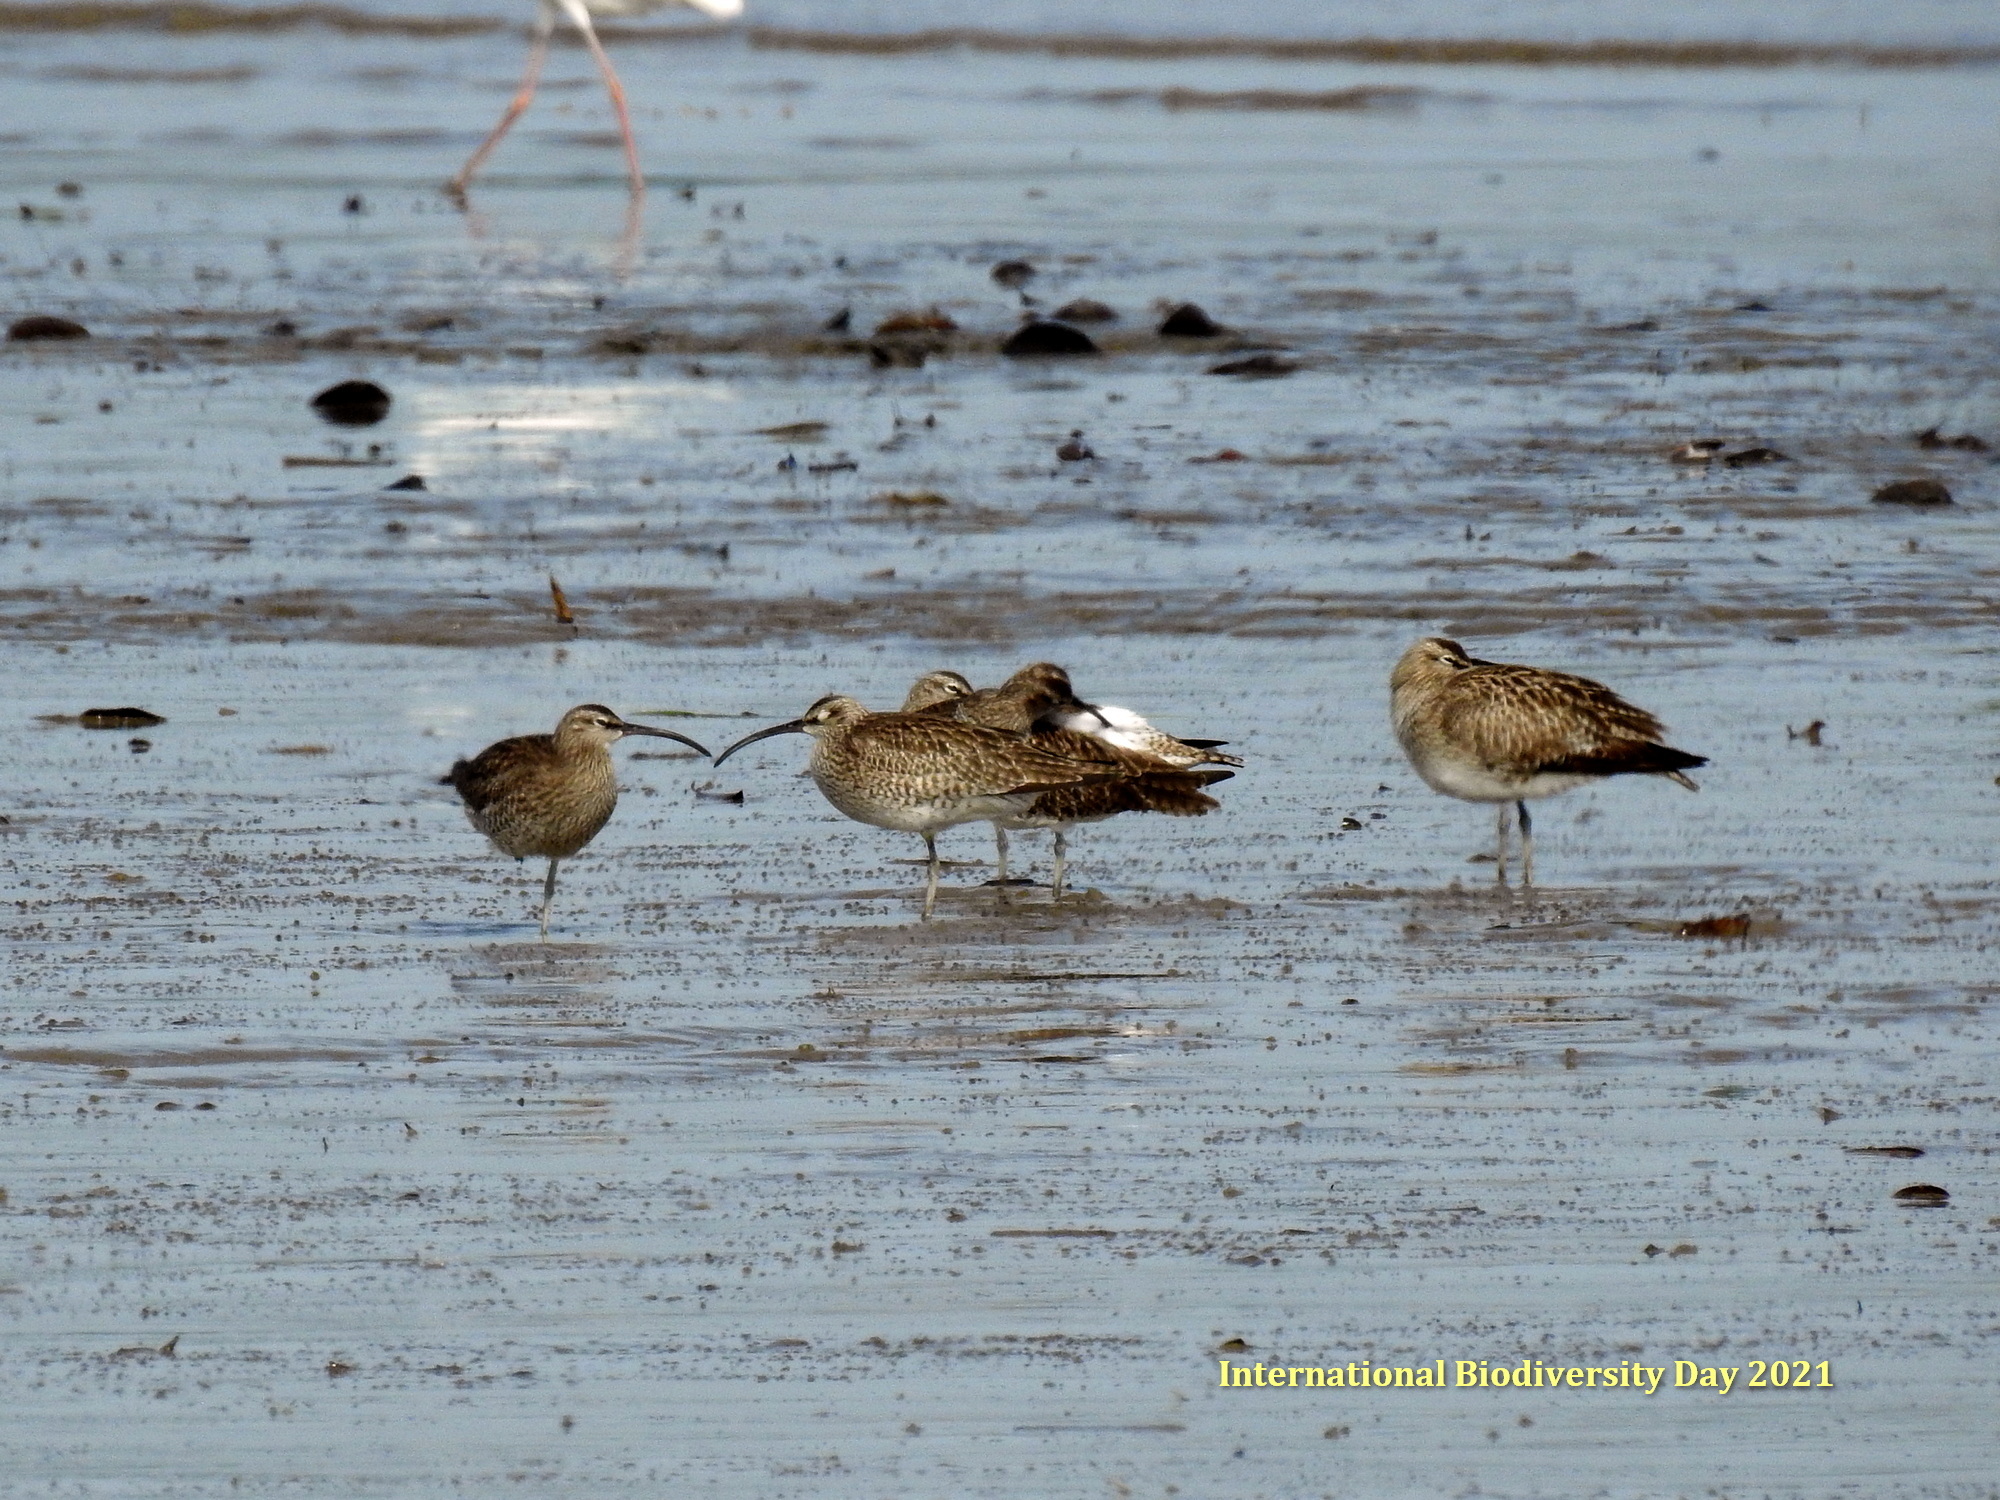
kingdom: Animalia
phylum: Chordata
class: Aves
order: Charadriiformes
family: Scolopacidae
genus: Numenius
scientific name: Numenius phaeopus
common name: Whimbrel
